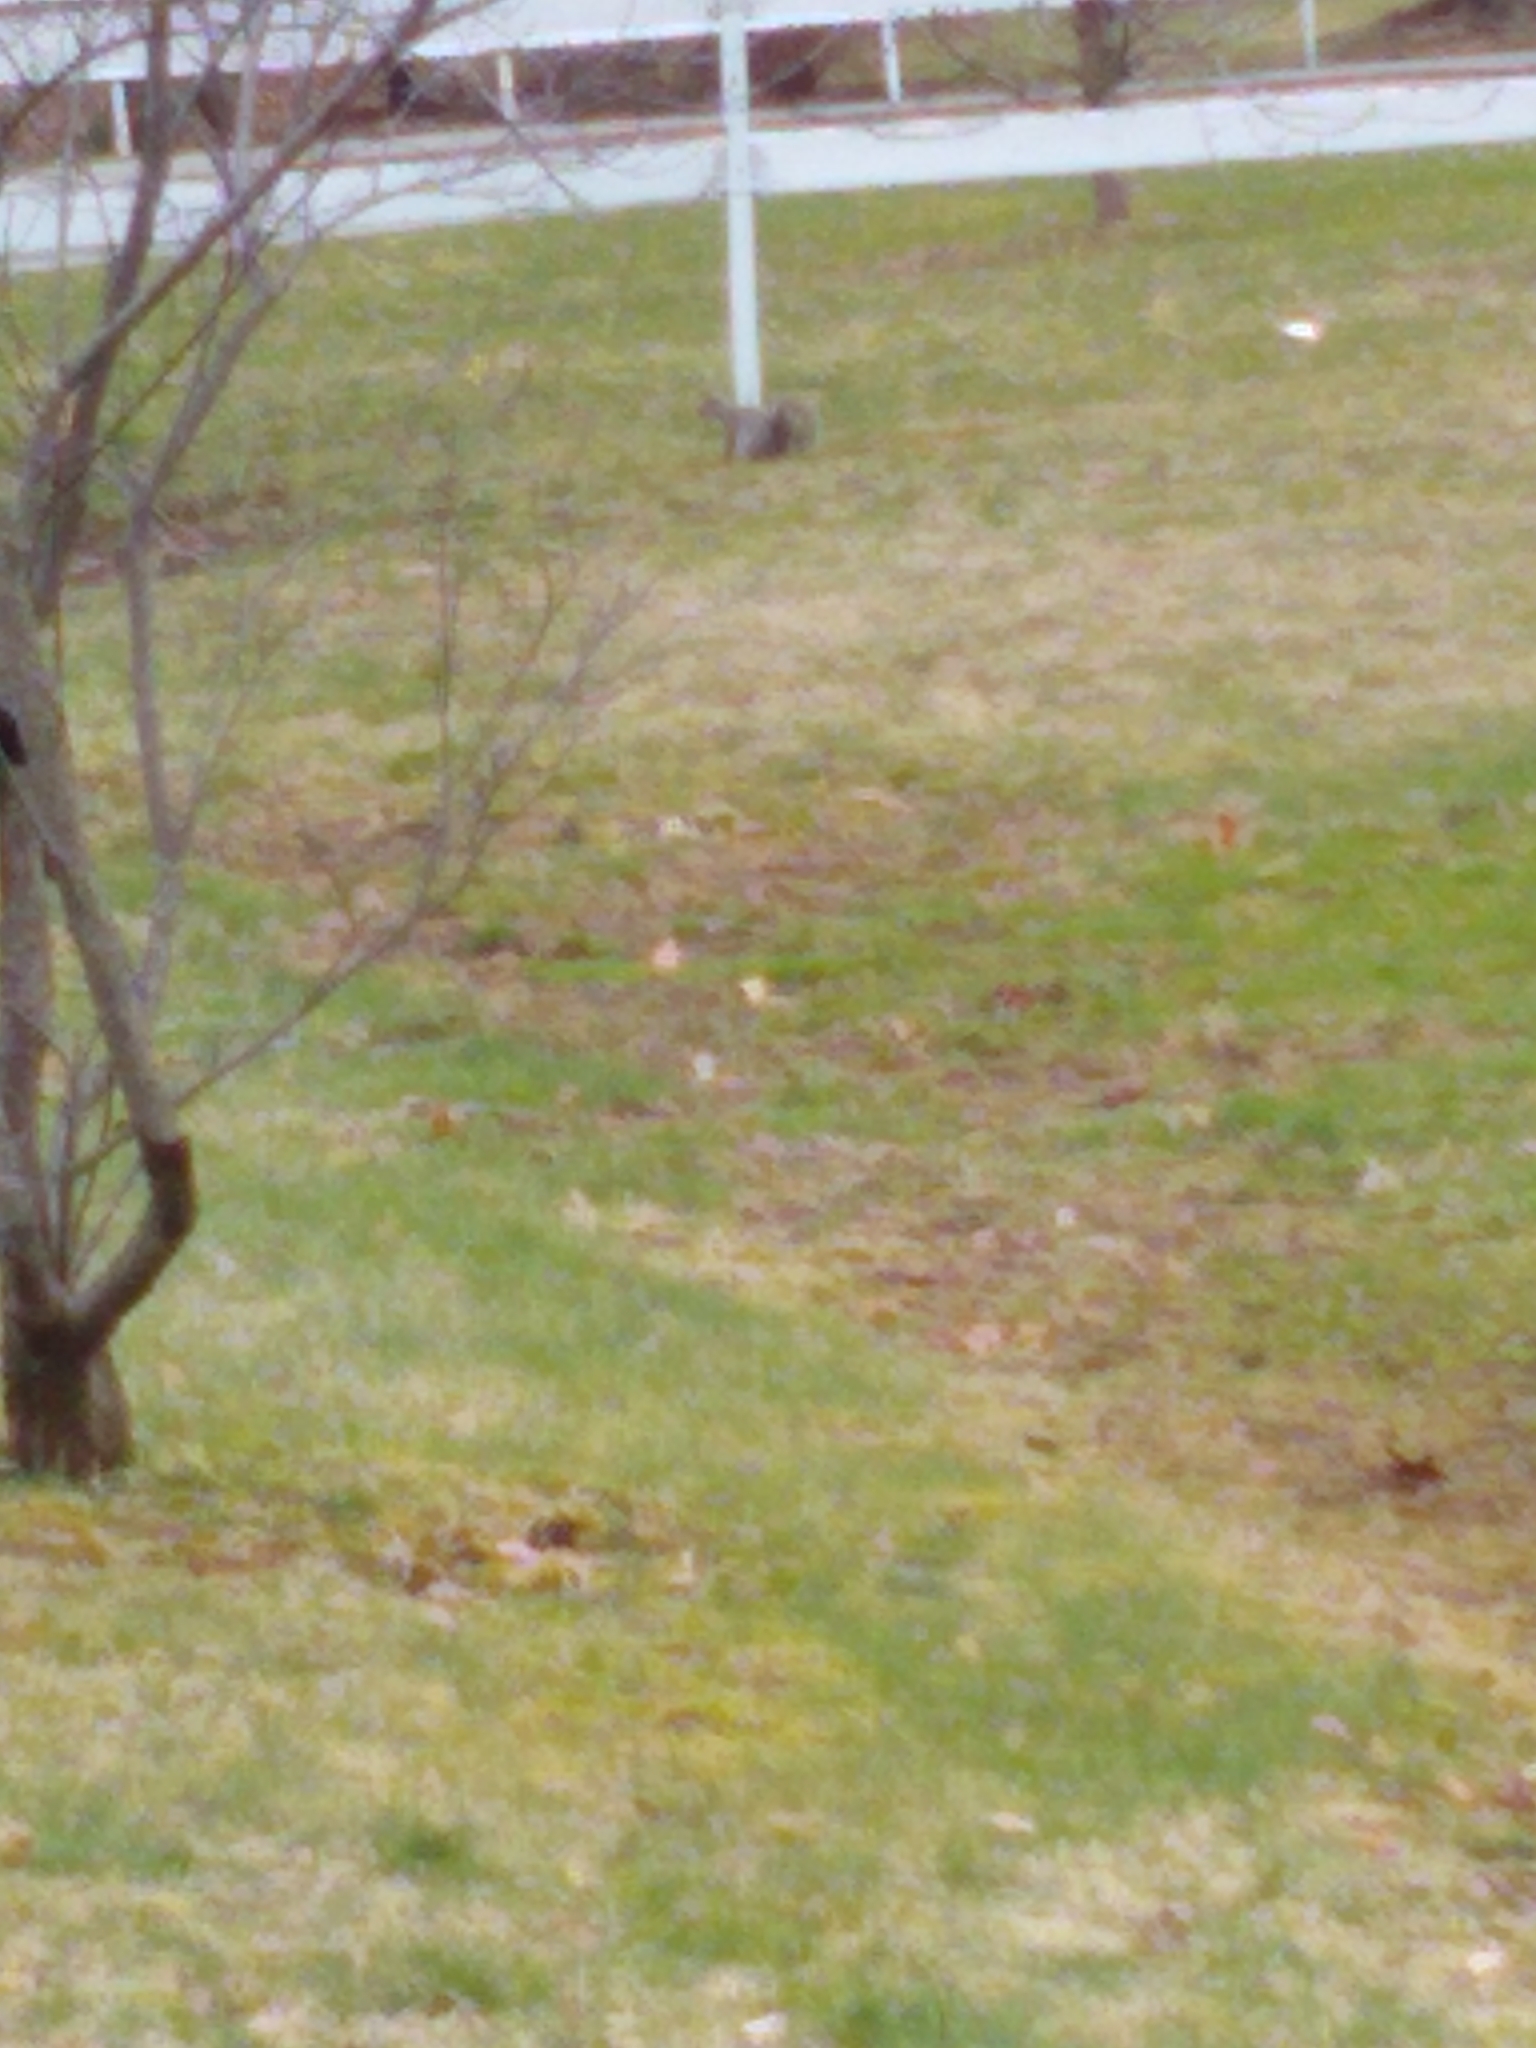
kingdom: Animalia
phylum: Chordata
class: Mammalia
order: Rodentia
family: Sciuridae
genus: Sciurus
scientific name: Sciurus carolinensis
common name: Eastern gray squirrel
